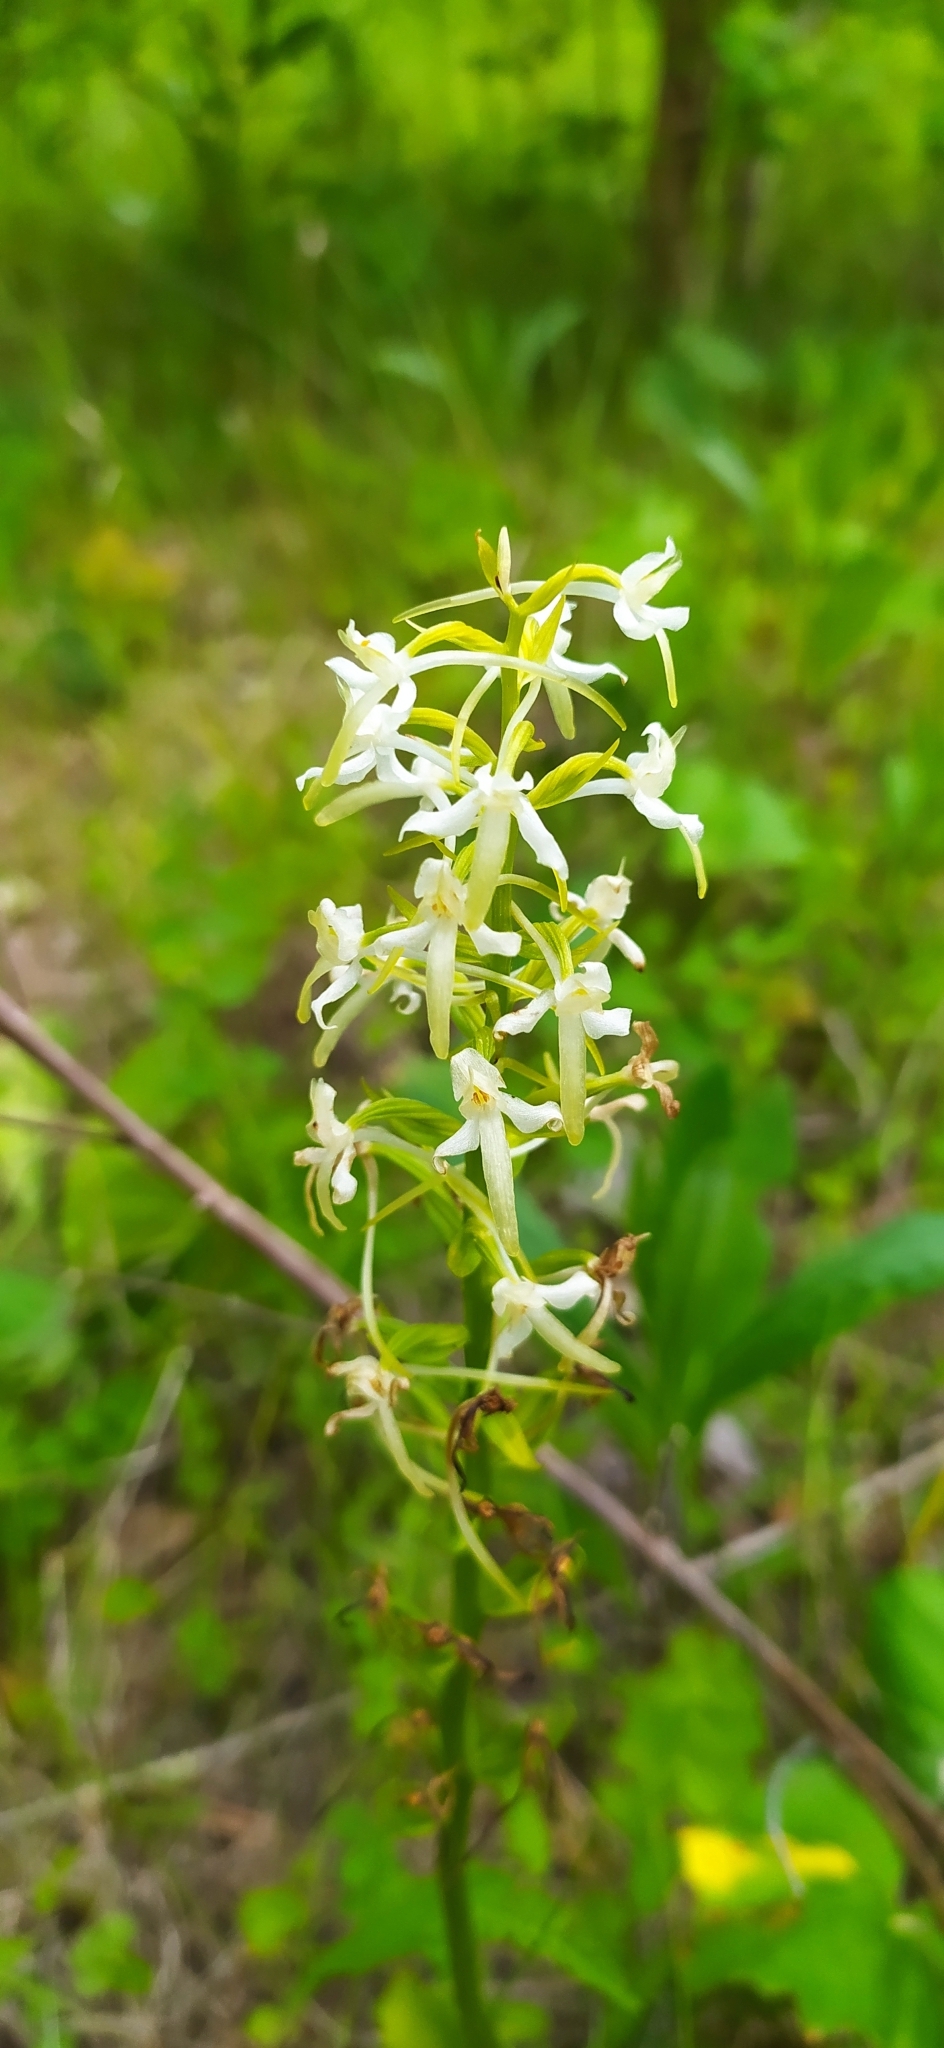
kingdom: Plantae
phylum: Tracheophyta
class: Liliopsida
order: Asparagales
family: Orchidaceae
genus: Platanthera
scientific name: Platanthera bifolia
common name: Lesser butterfly-orchid
